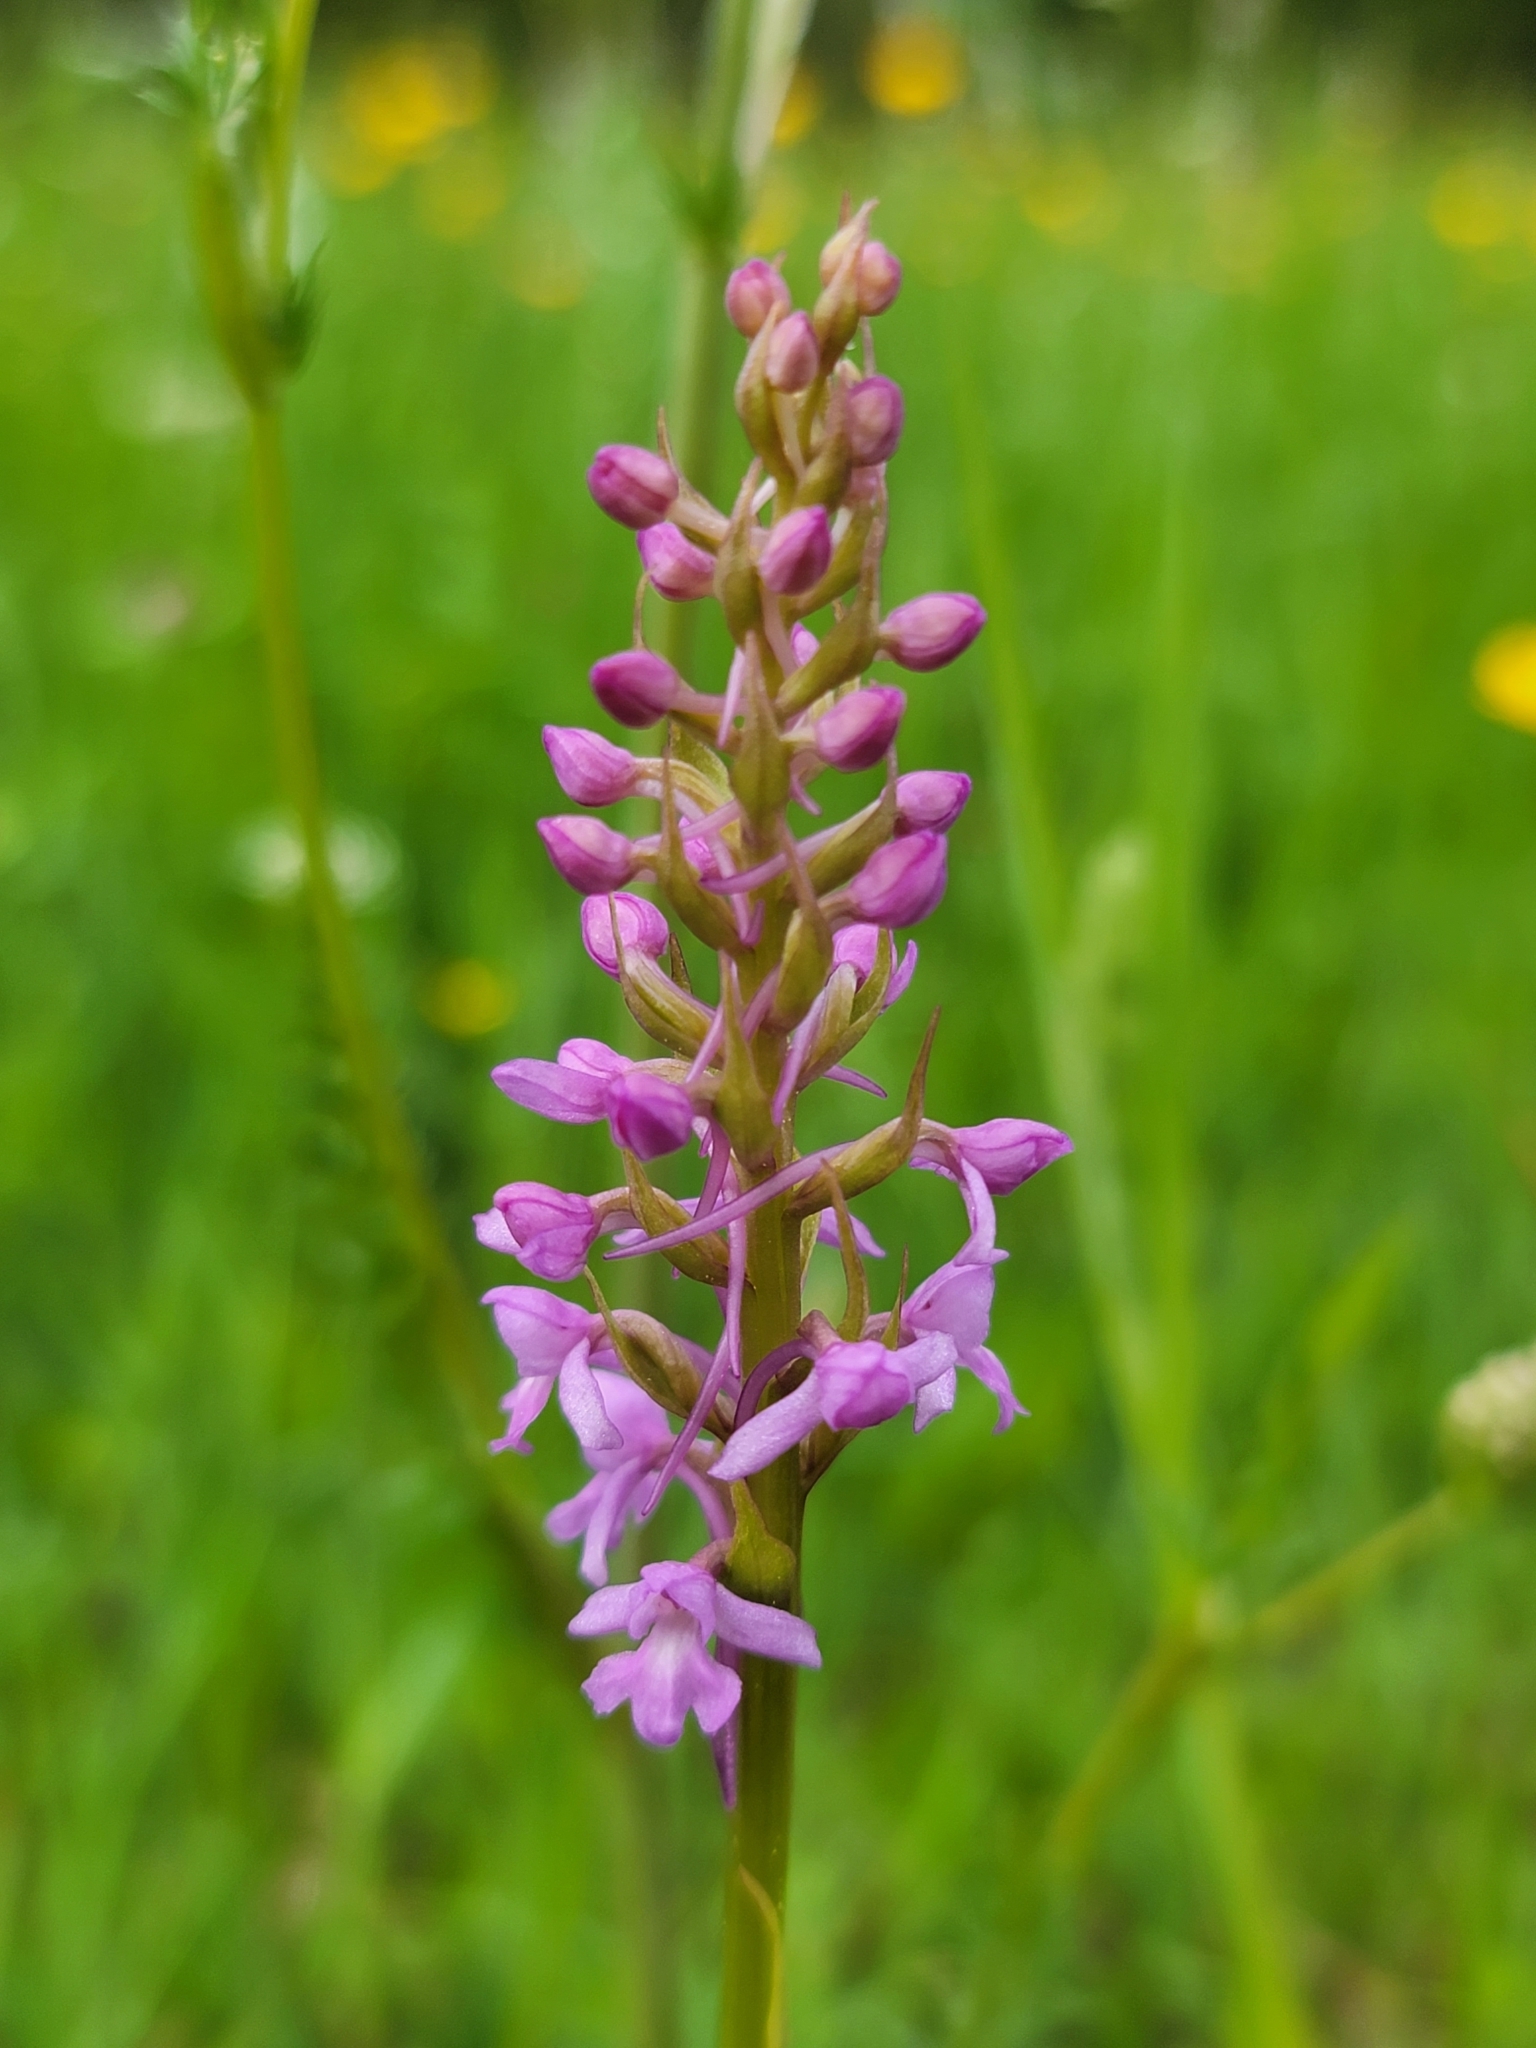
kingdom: Plantae
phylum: Tracheophyta
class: Liliopsida
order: Asparagales
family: Orchidaceae
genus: Gymnadenia
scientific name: Gymnadenia conopsea
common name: Fragrant orchid
